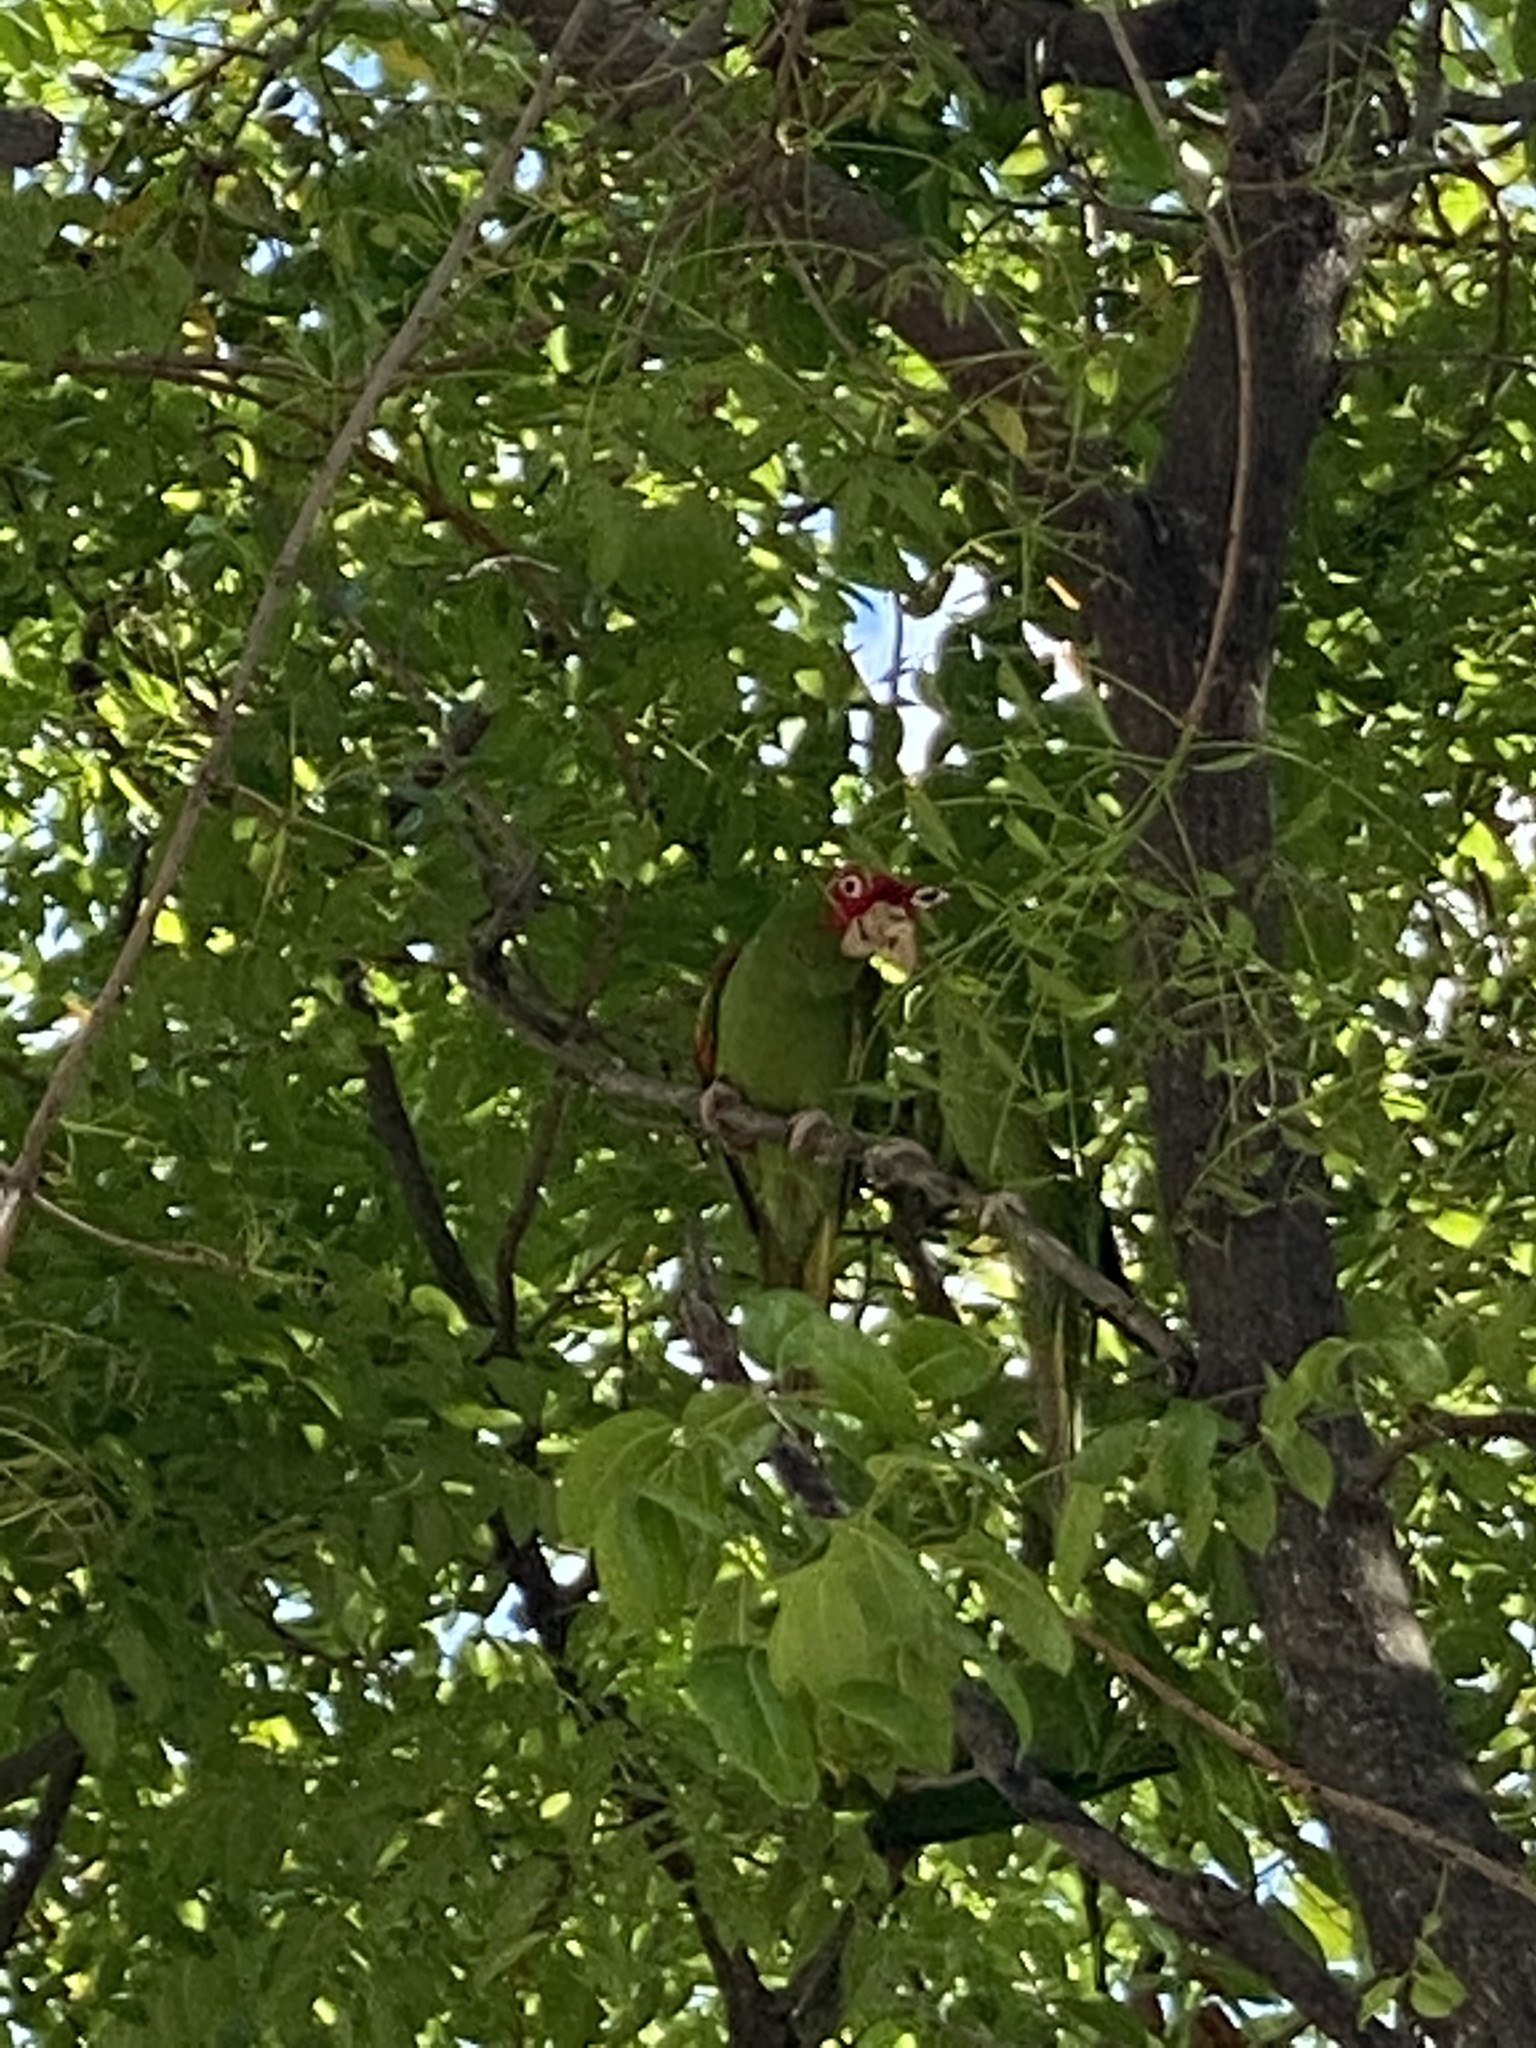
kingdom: Animalia
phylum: Chordata
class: Aves
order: Psittaciformes
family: Psittacidae
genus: Aratinga
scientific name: Aratinga erythrogenys
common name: Red-masked parakeet
